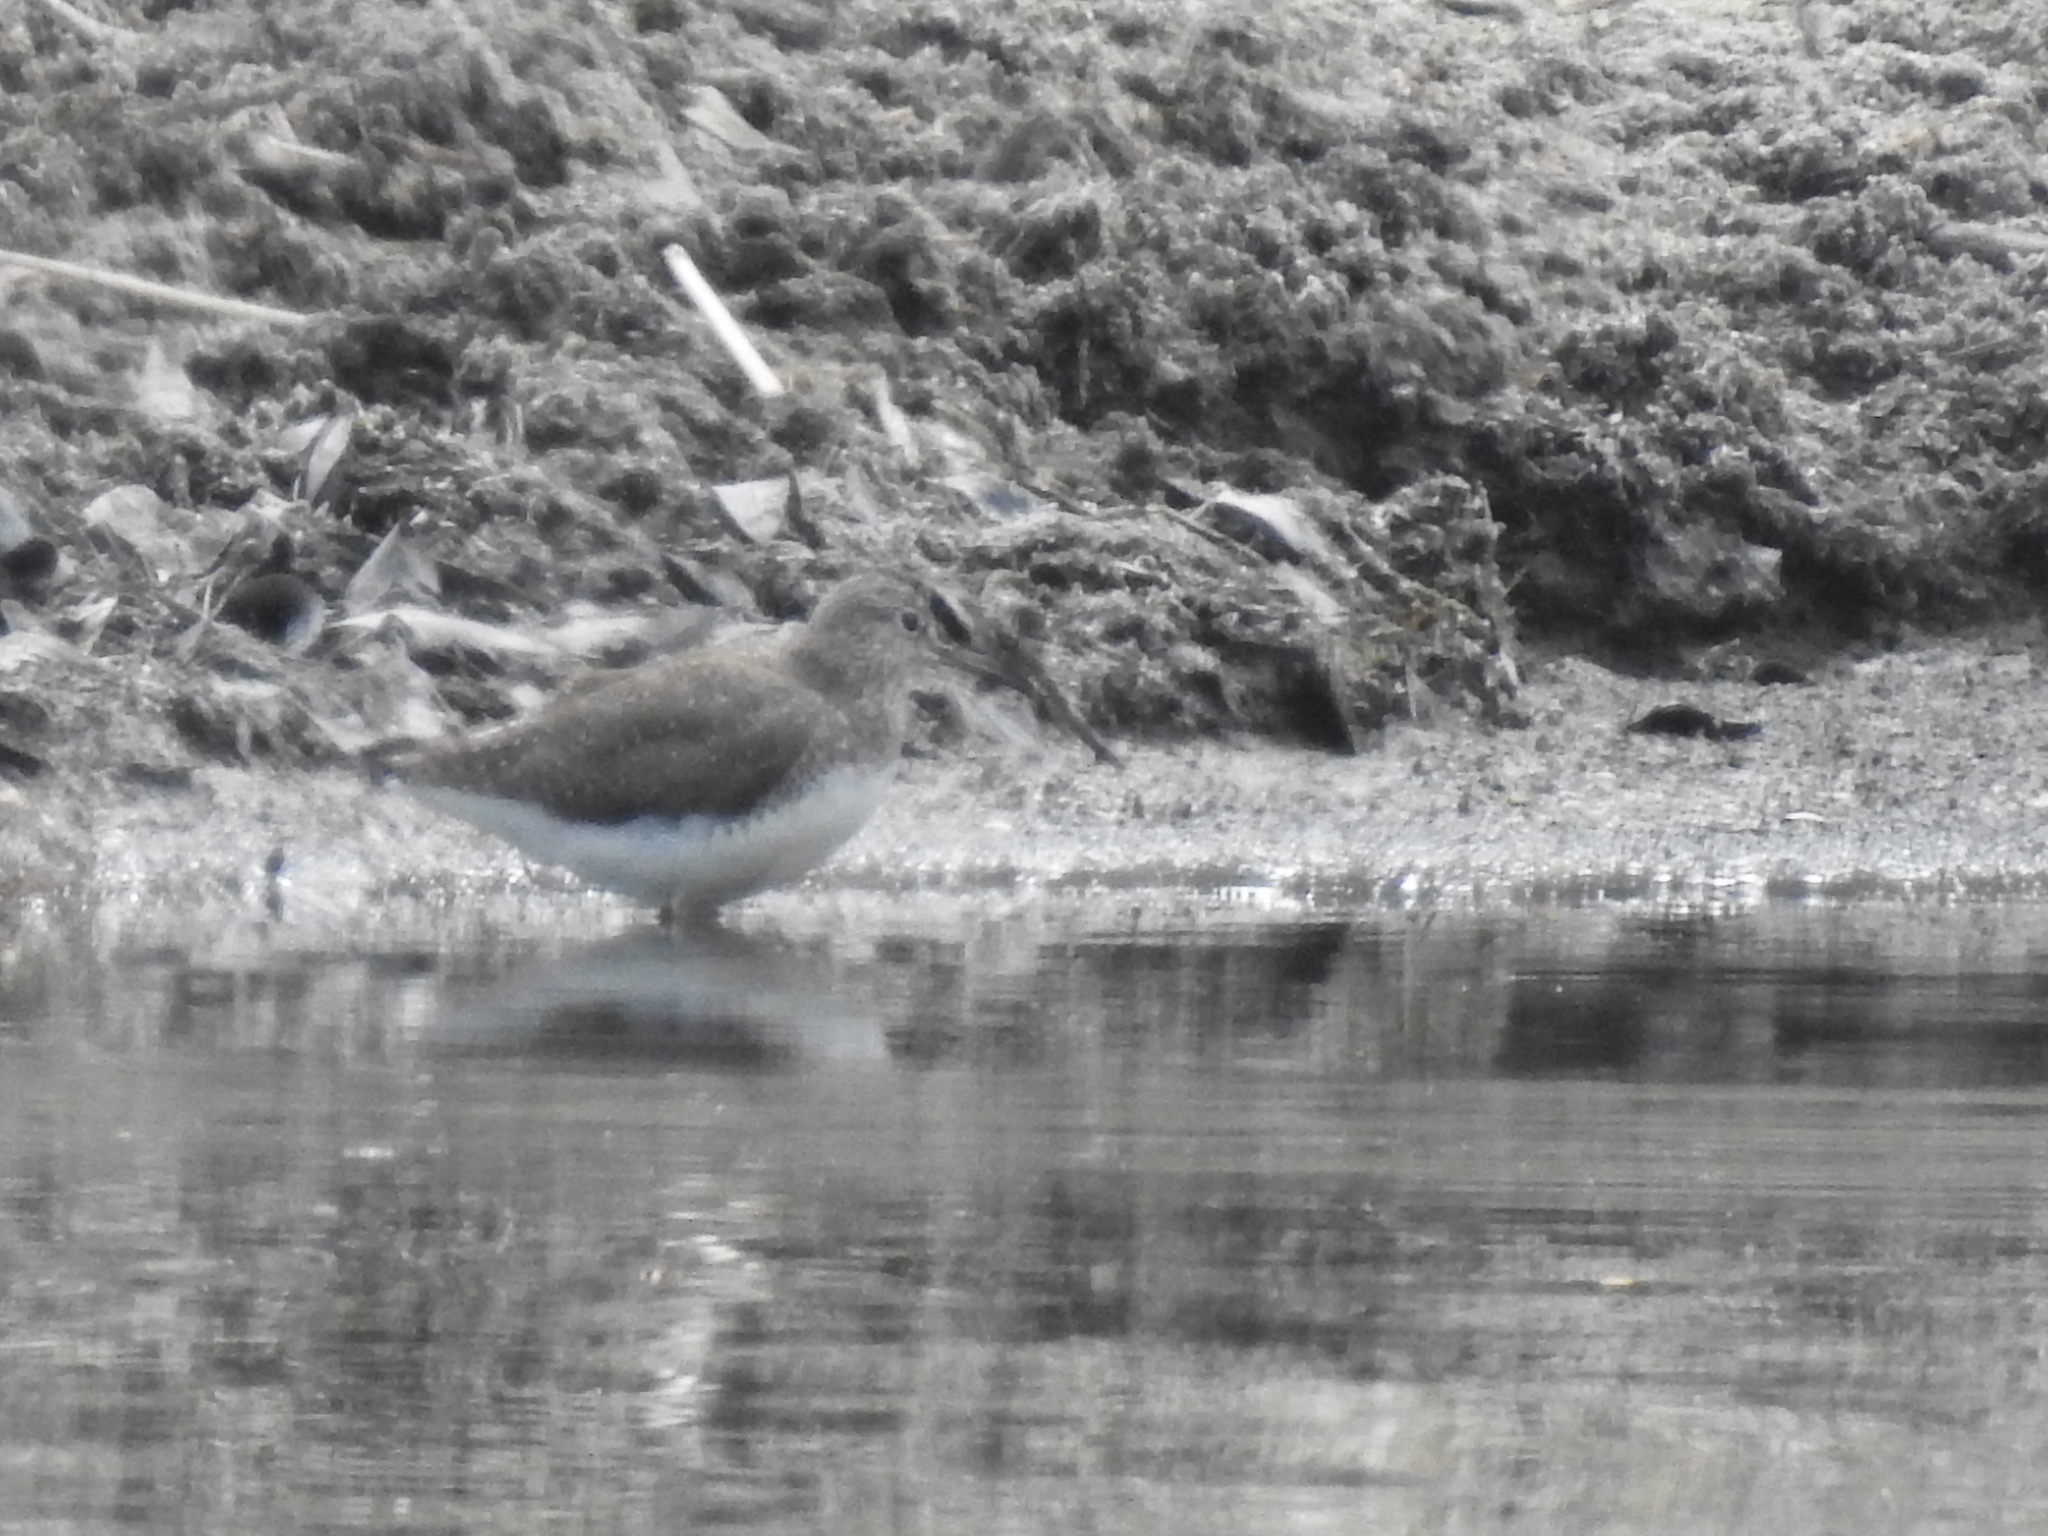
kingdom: Animalia
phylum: Chordata
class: Aves
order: Charadriiformes
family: Scolopacidae
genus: Tringa
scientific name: Tringa ochropus
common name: Green sandpiper
